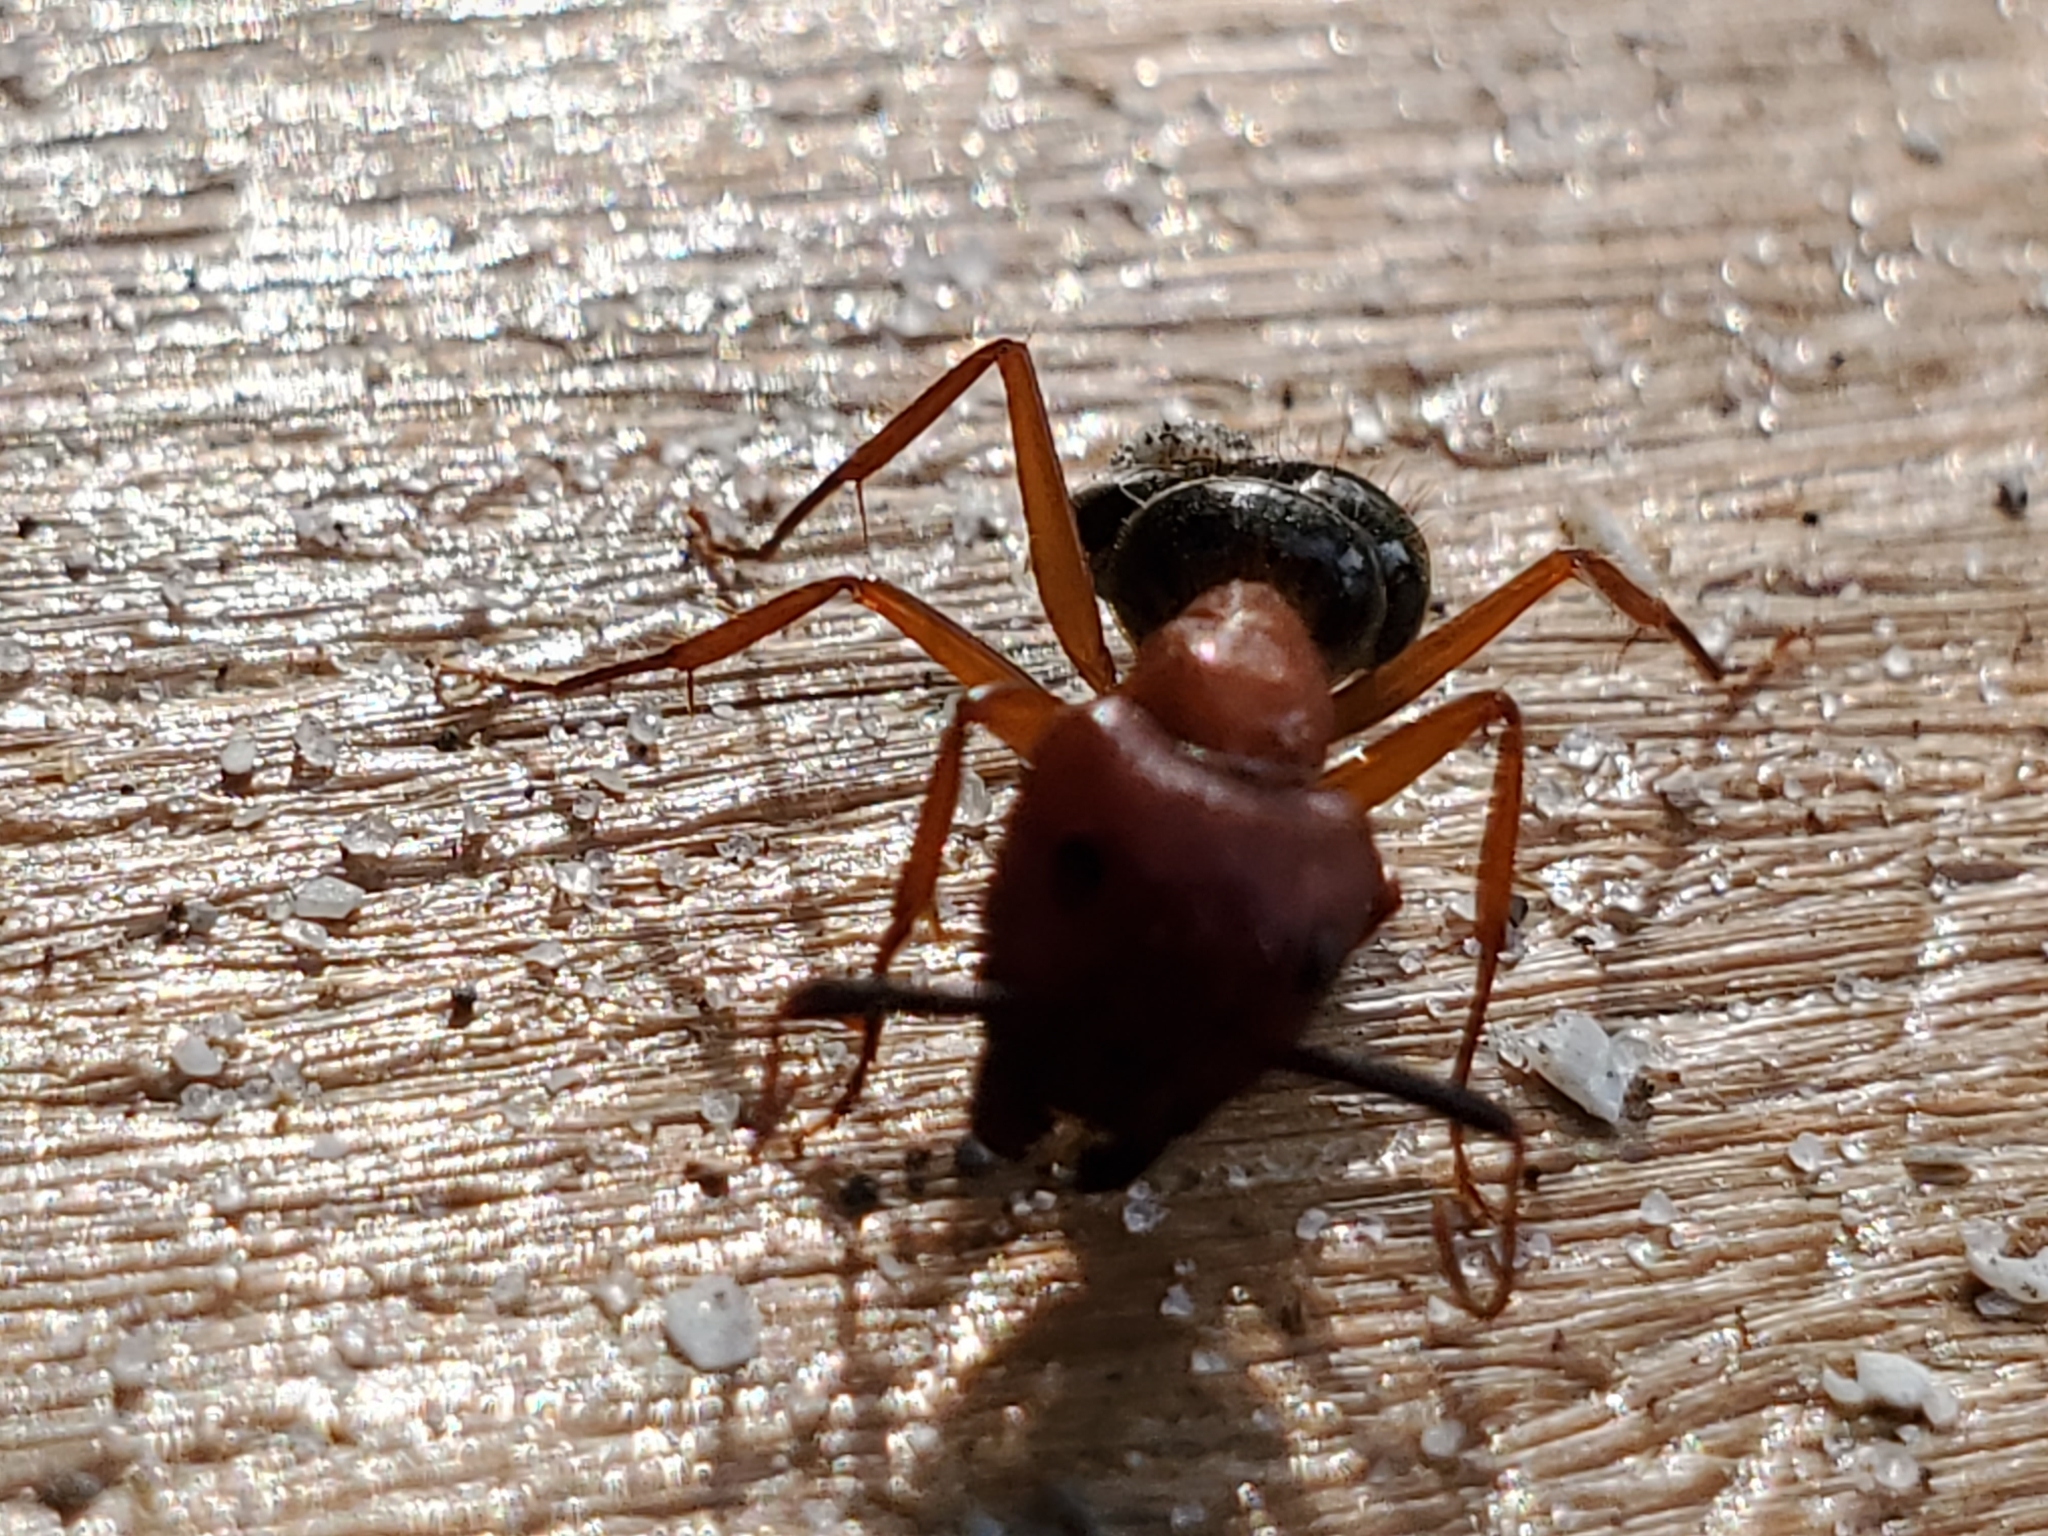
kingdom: Animalia
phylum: Arthropoda
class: Insecta
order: Hymenoptera
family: Formicidae
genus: Camponotus
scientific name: Camponotus floridanus
